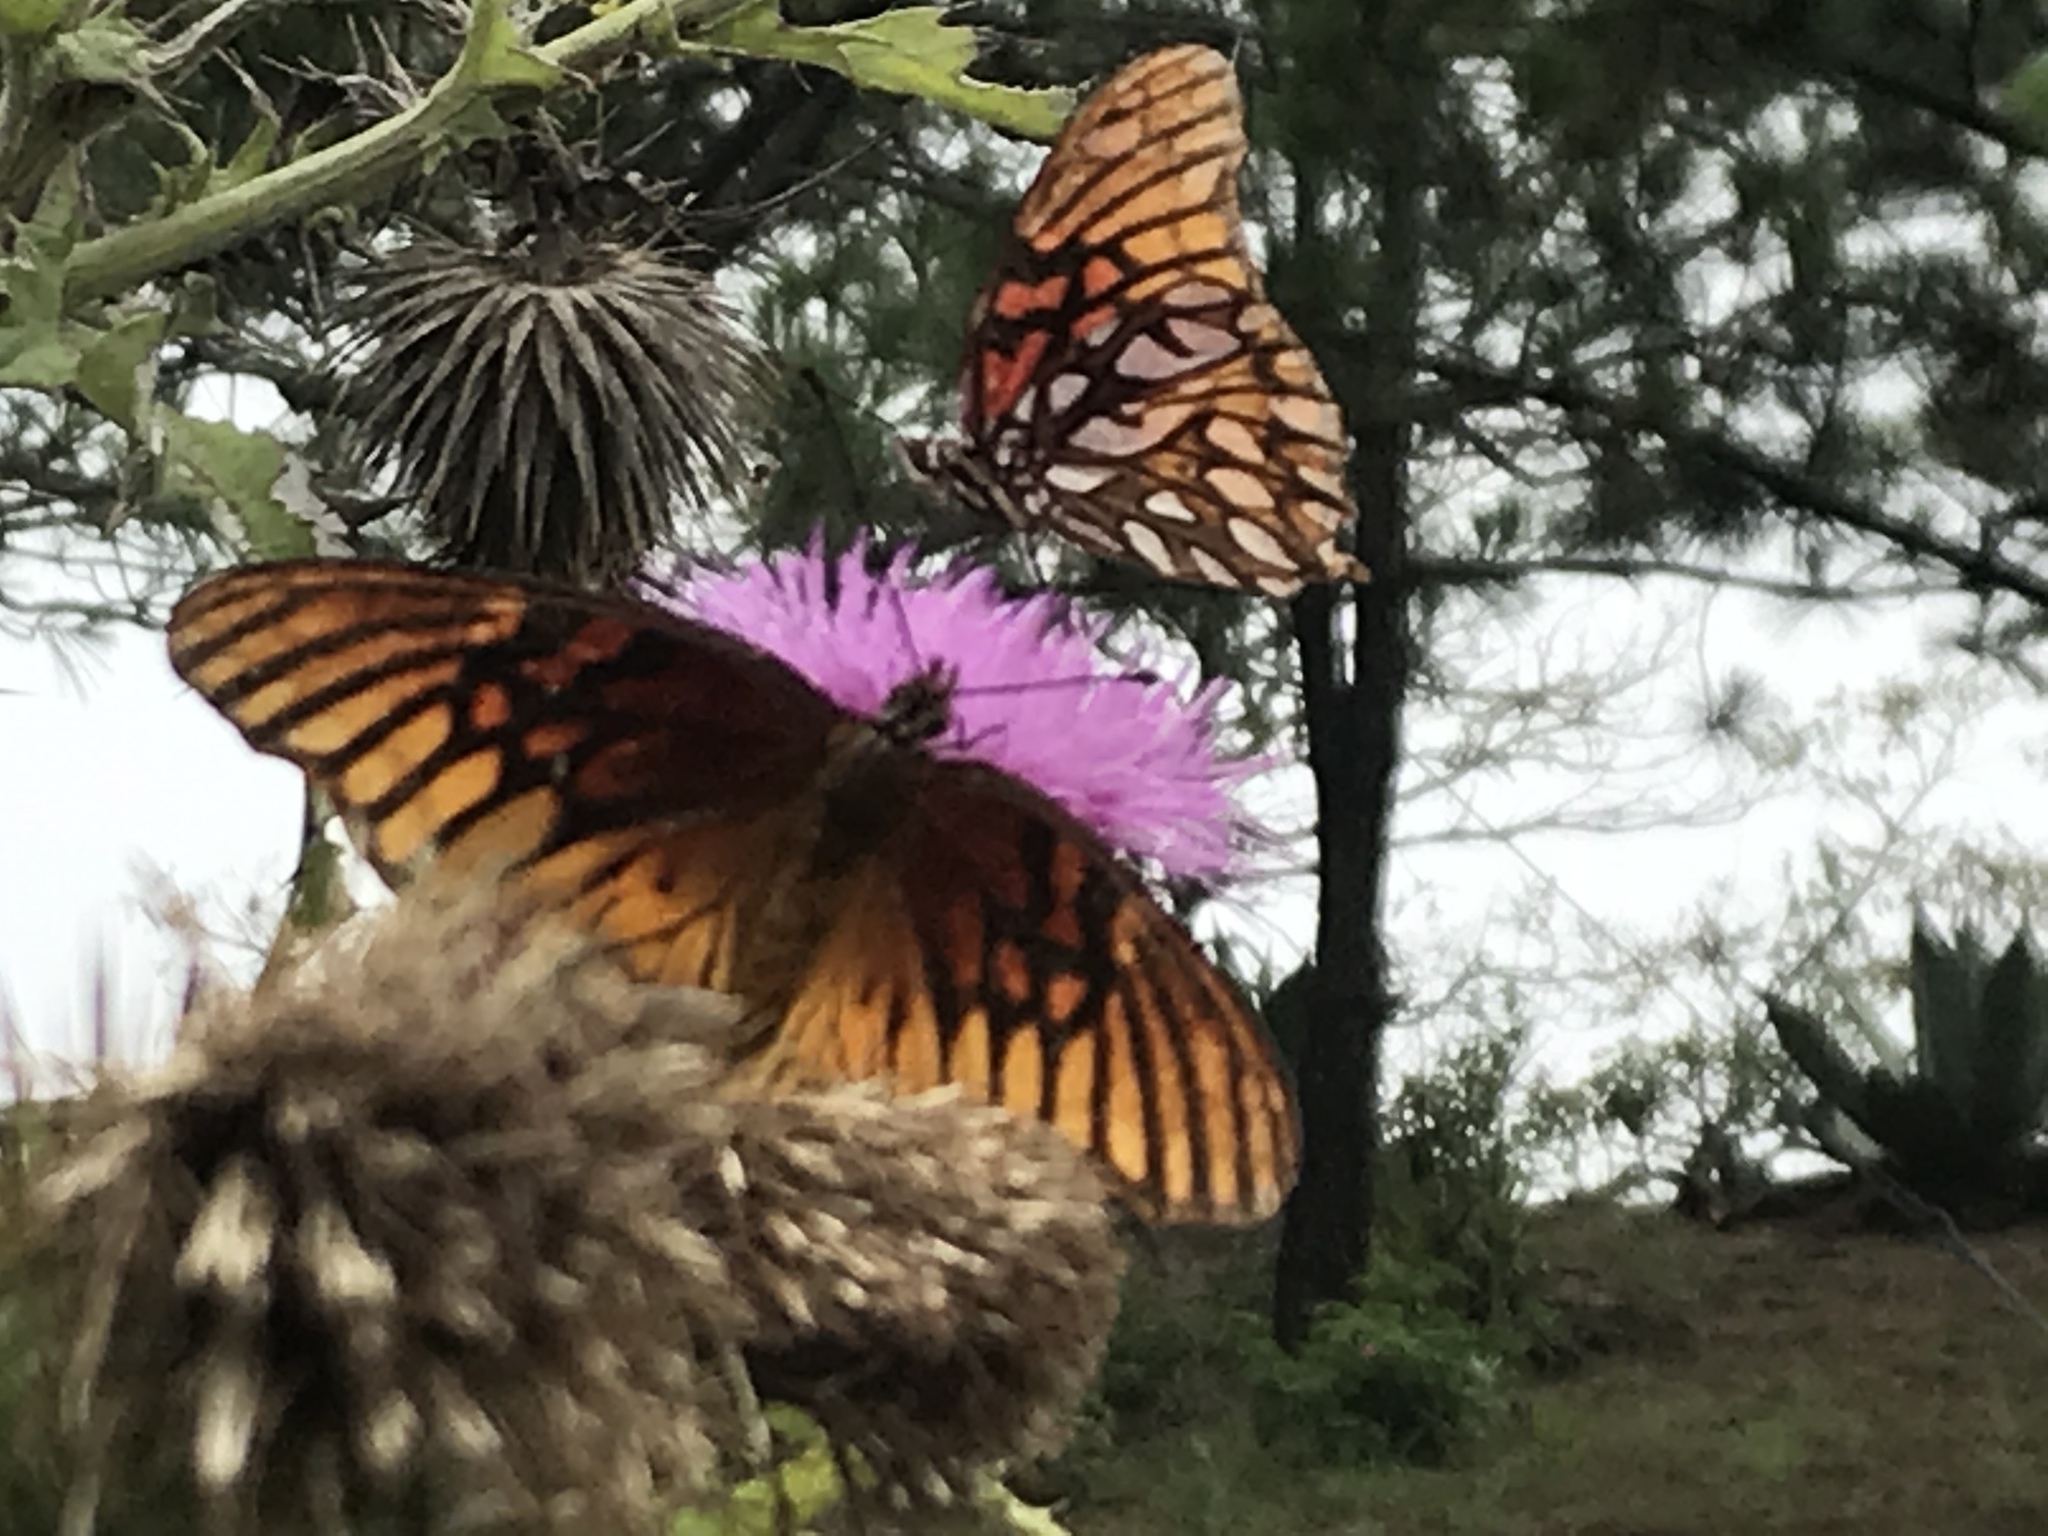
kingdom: Animalia
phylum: Arthropoda
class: Insecta
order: Lepidoptera
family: Nymphalidae
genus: Dione
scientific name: Dione moneta
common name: Mexican silverspot
